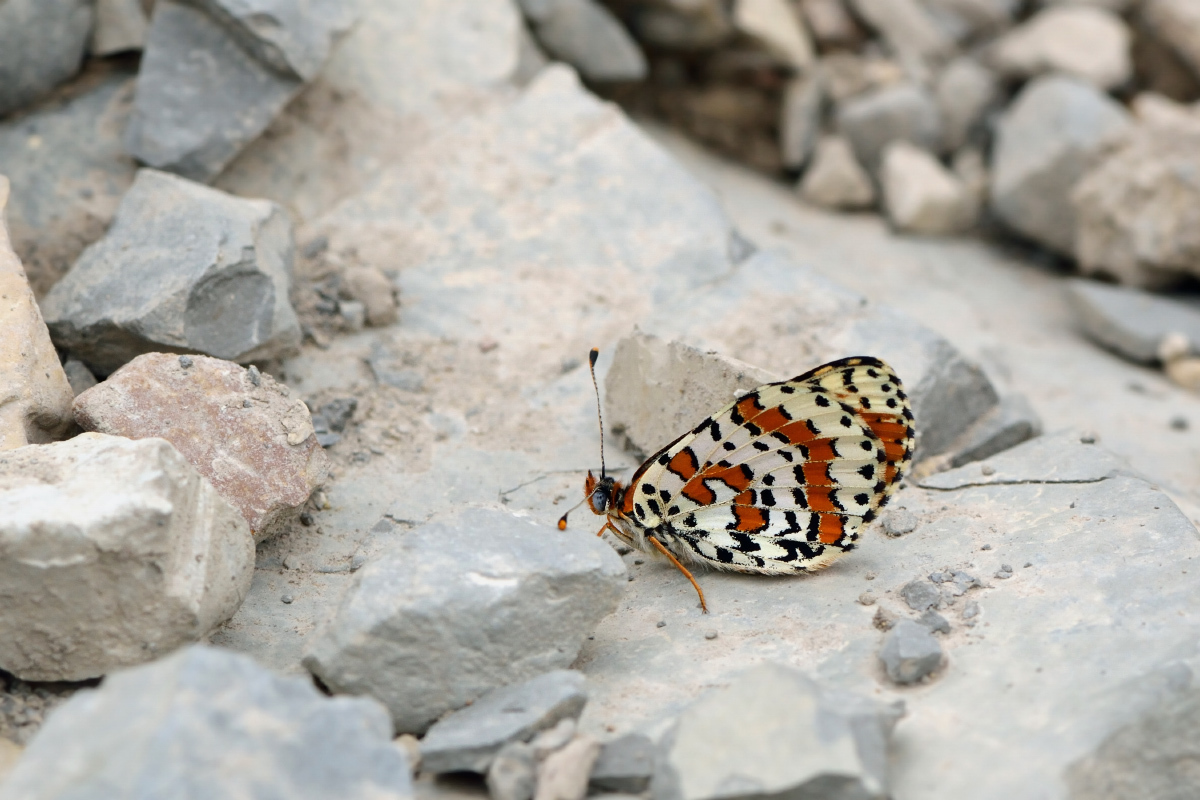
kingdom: Animalia
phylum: Arthropoda
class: Insecta
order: Lepidoptera
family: Nymphalidae
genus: Melitaea
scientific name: Melitaea didyma
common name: Spotted fritillary
